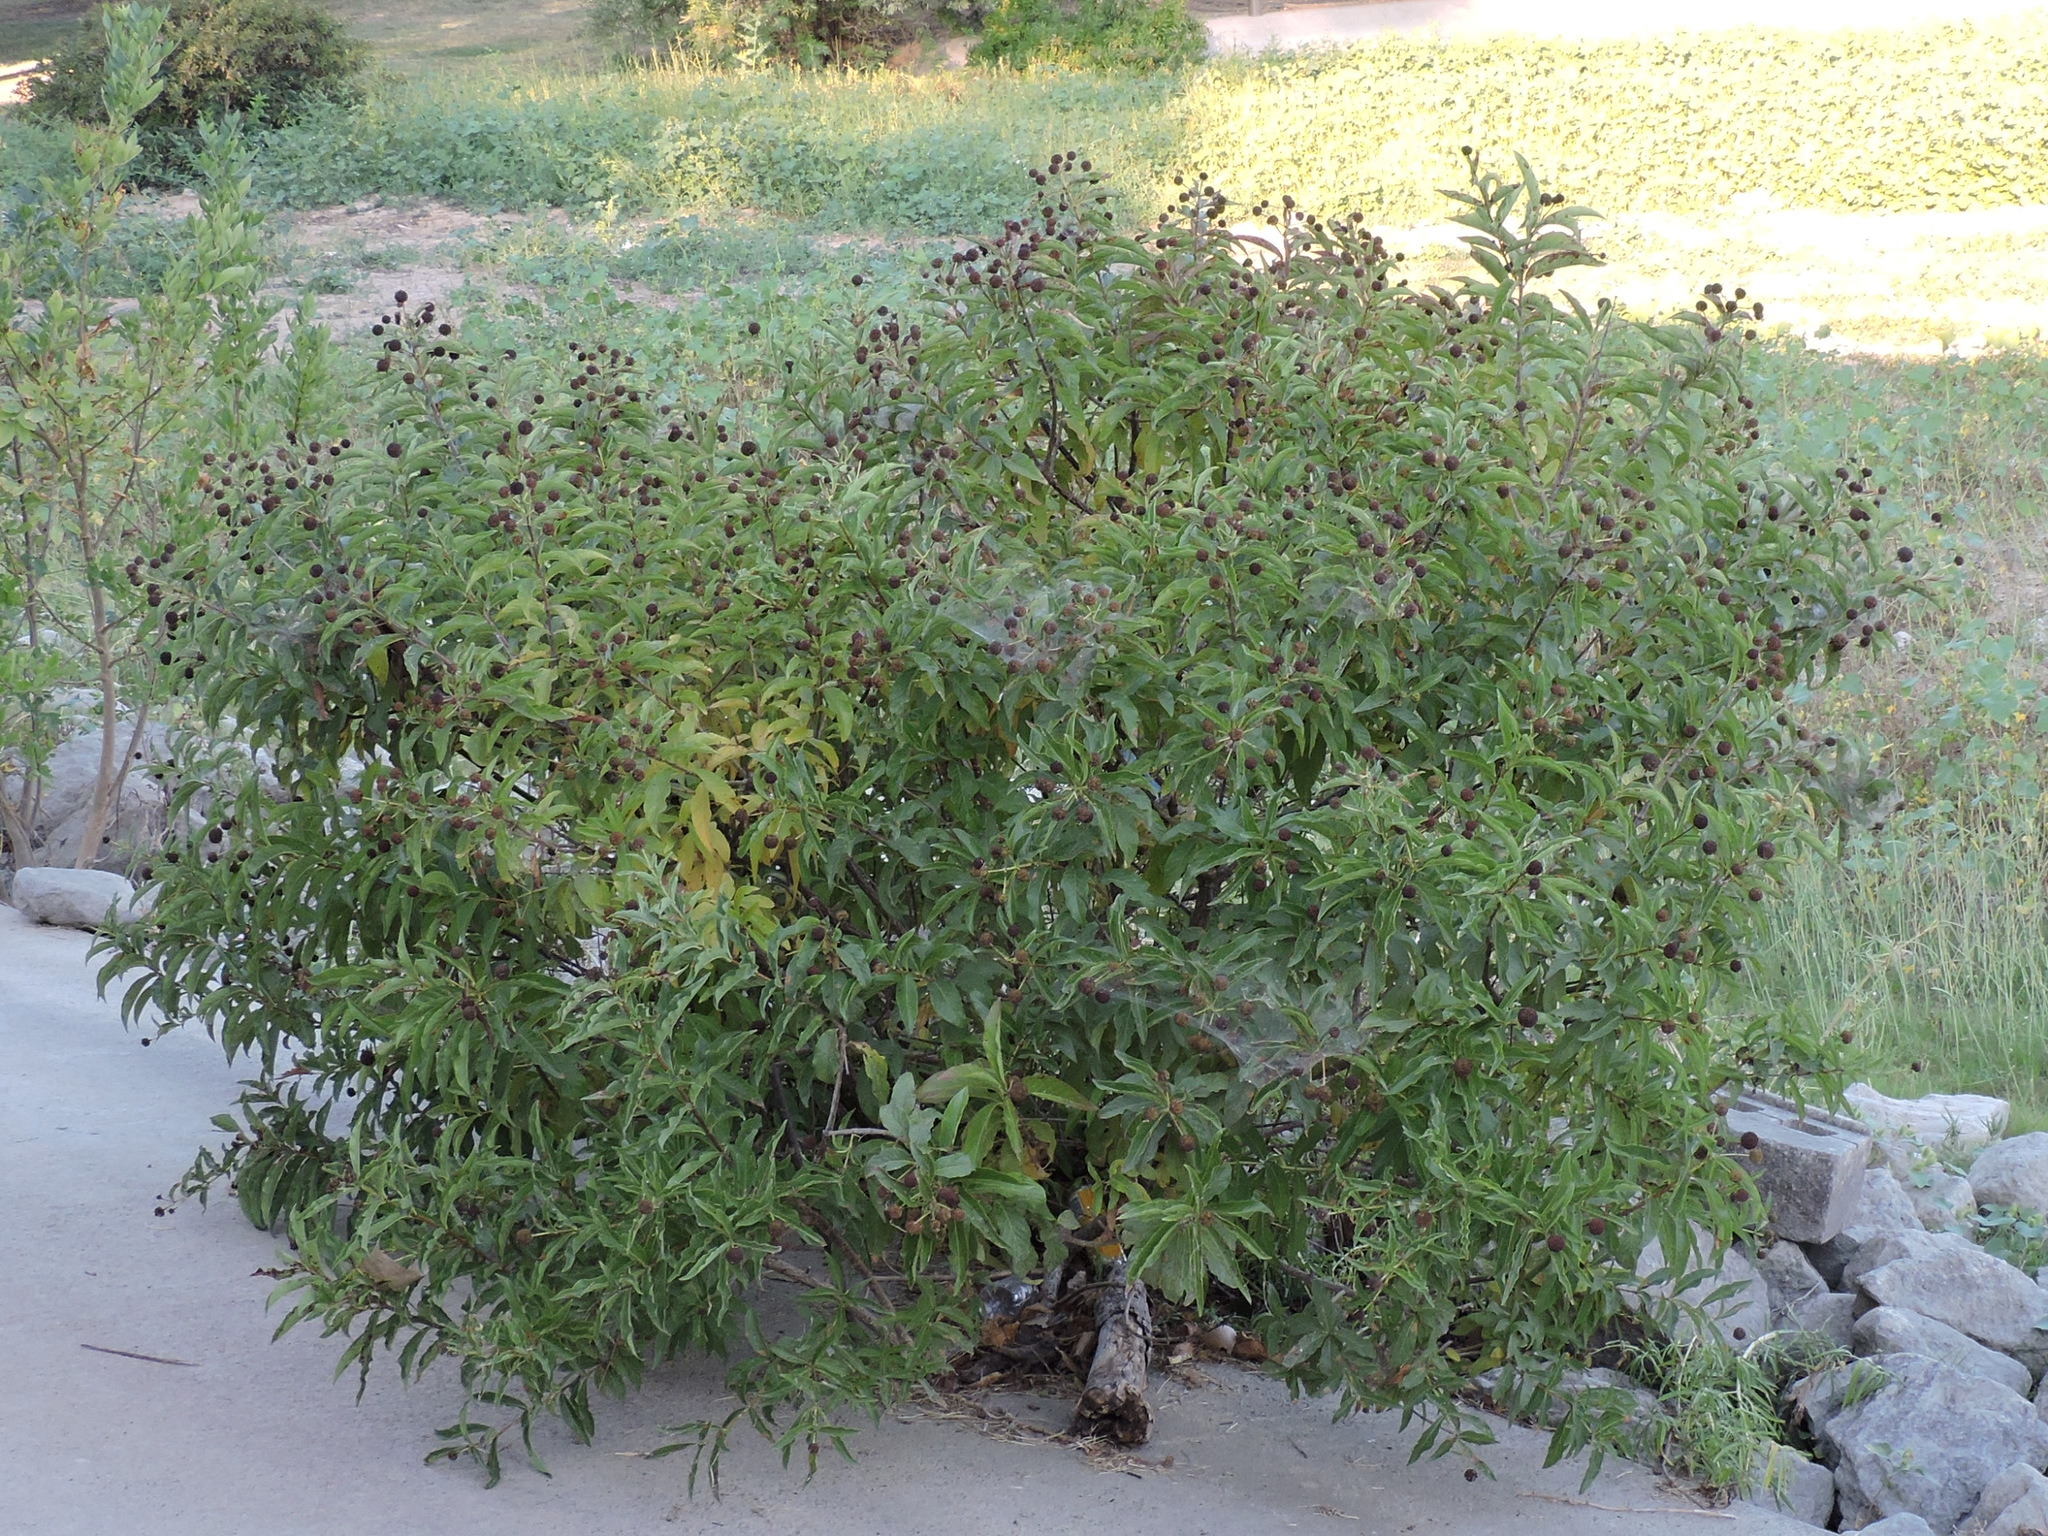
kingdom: Plantae
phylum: Tracheophyta
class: Magnoliopsida
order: Gentianales
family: Rubiaceae
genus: Cephalanthus
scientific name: Cephalanthus occidentalis
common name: Button-willow
